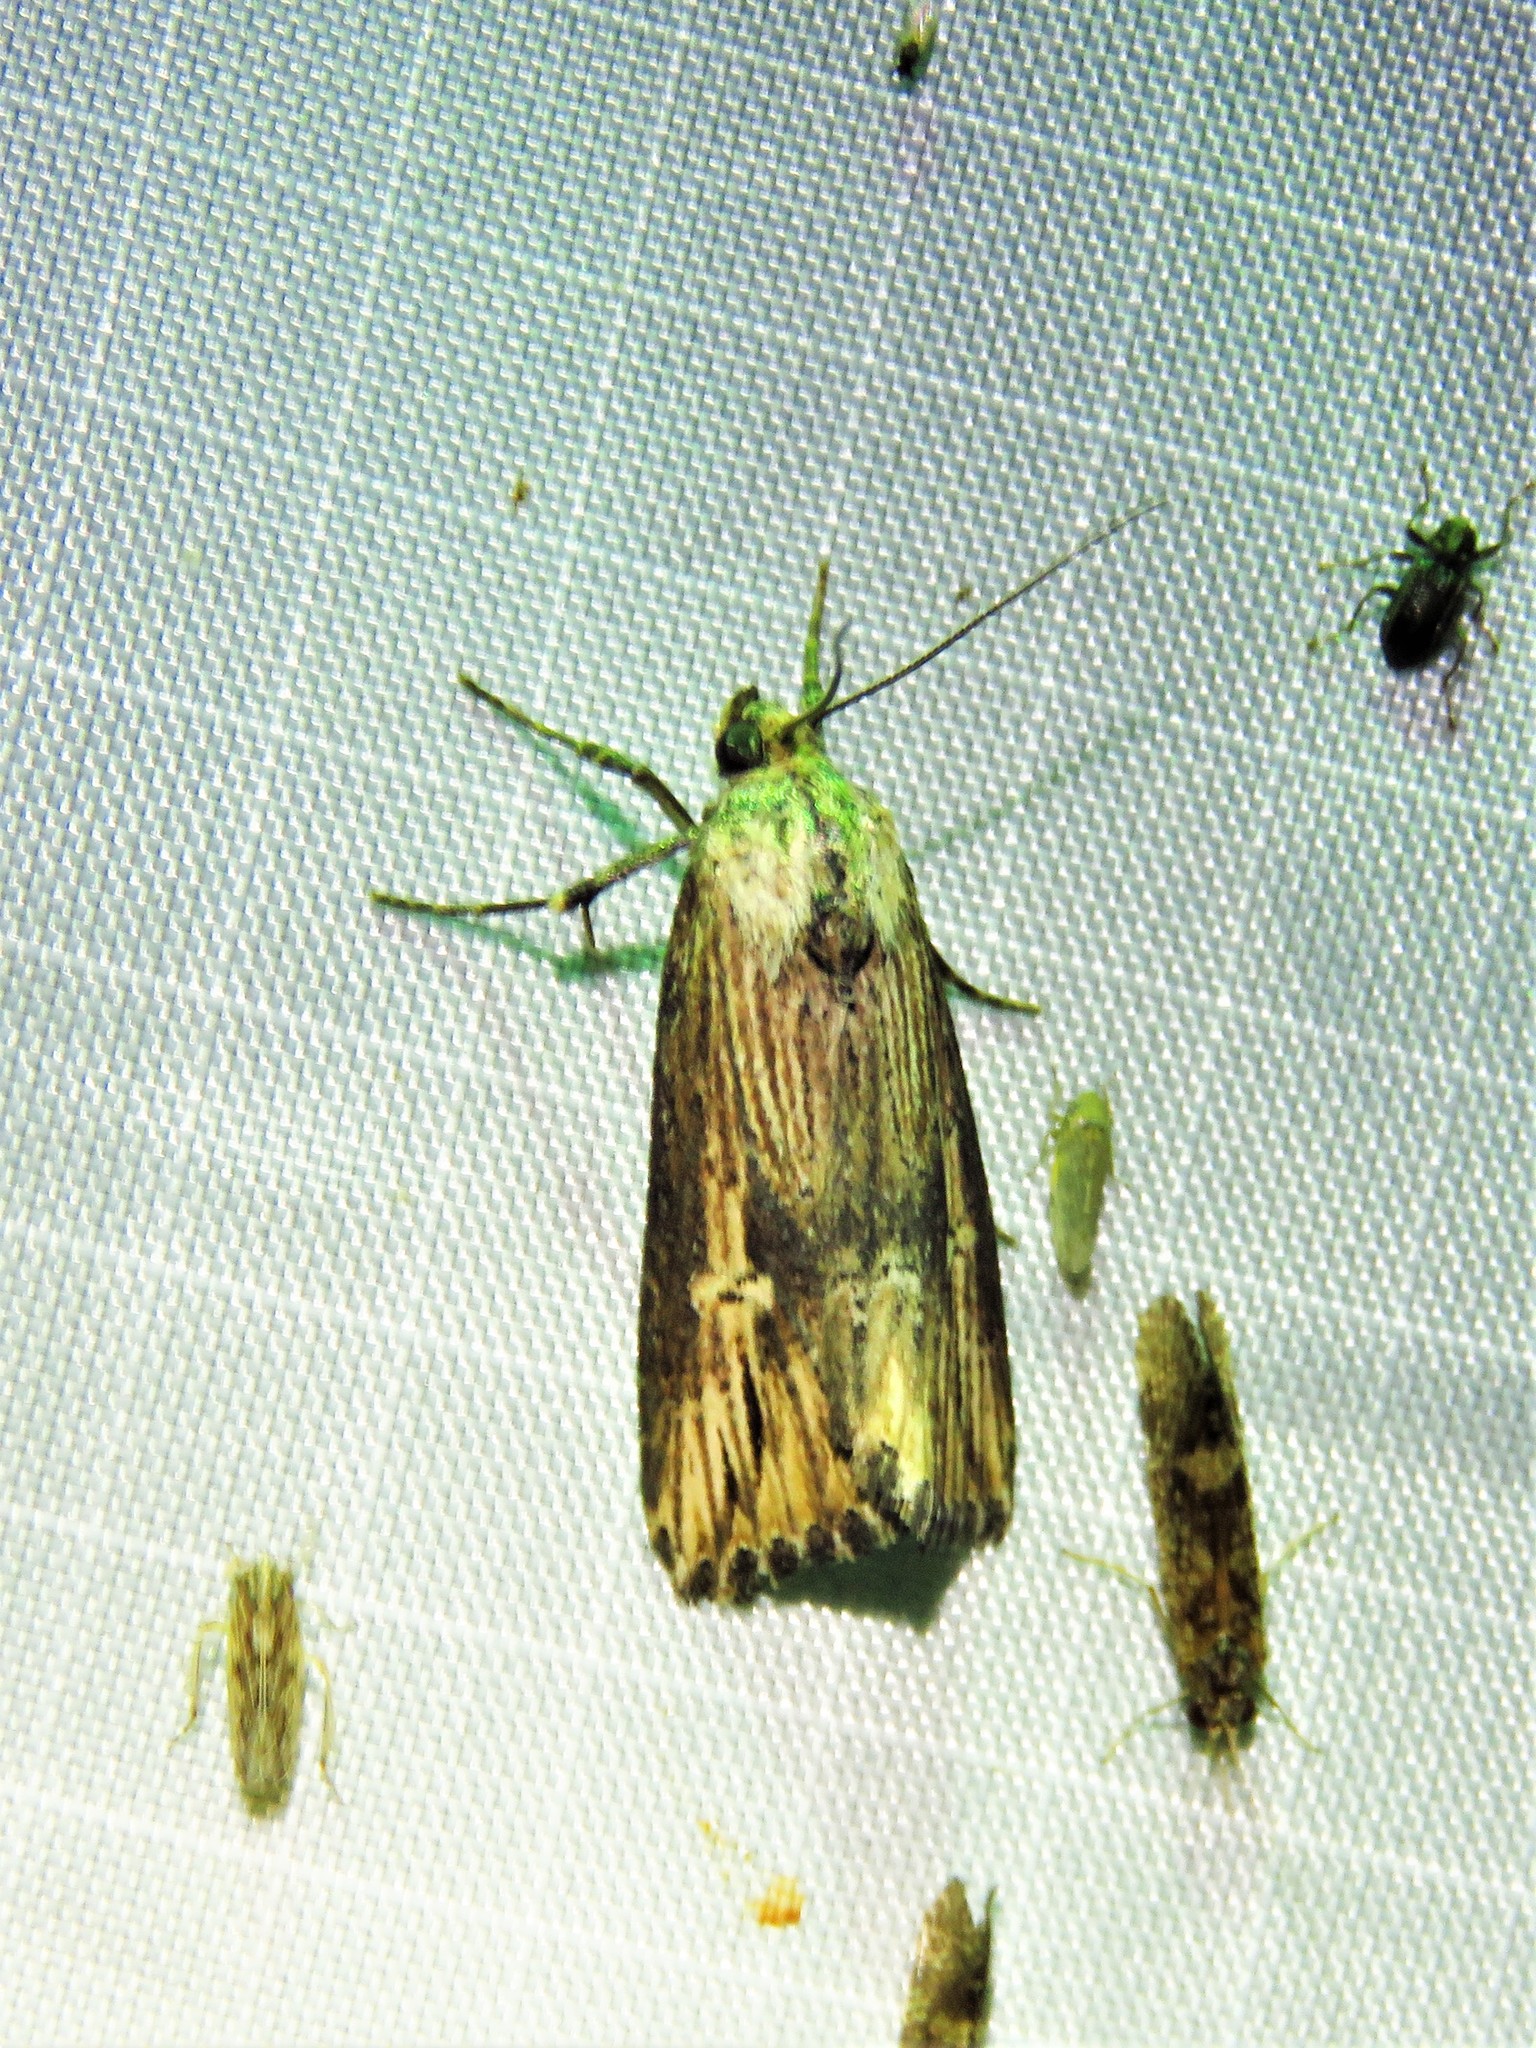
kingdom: Animalia
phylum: Arthropoda
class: Insecta
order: Lepidoptera
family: Noctuidae
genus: Crambodes
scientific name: Crambodes talidiformis
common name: Verbena moth
